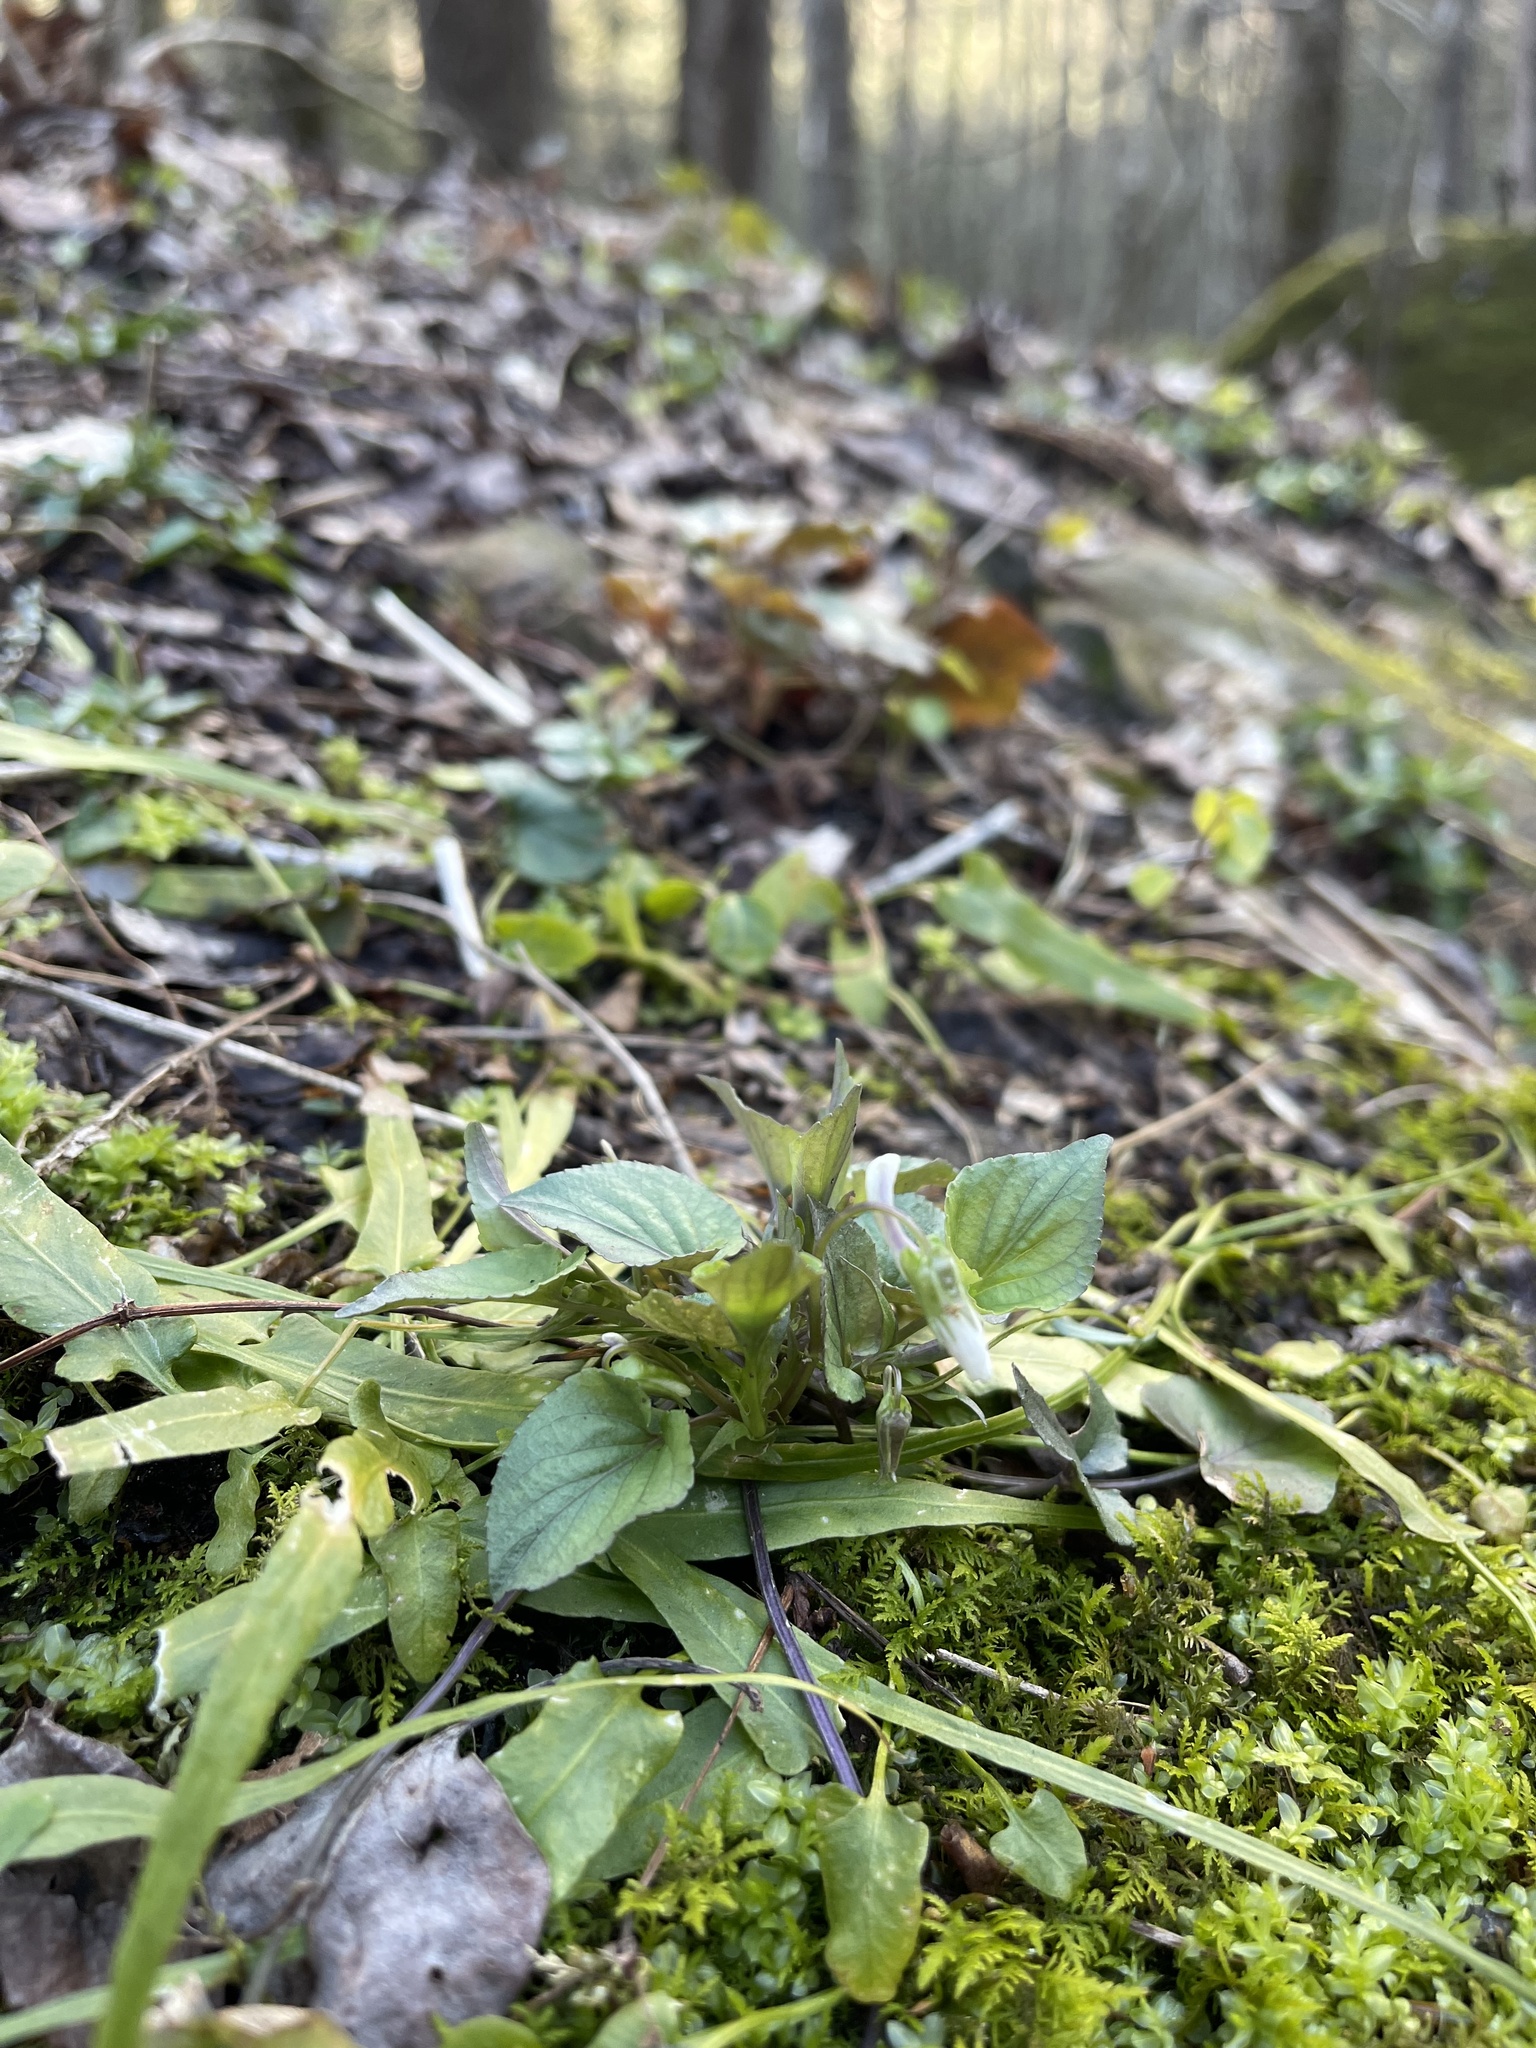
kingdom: Plantae
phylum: Tracheophyta
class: Magnoliopsida
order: Malpighiales
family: Violaceae
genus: Viola
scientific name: Viola rostrata
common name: Long-spur violet
